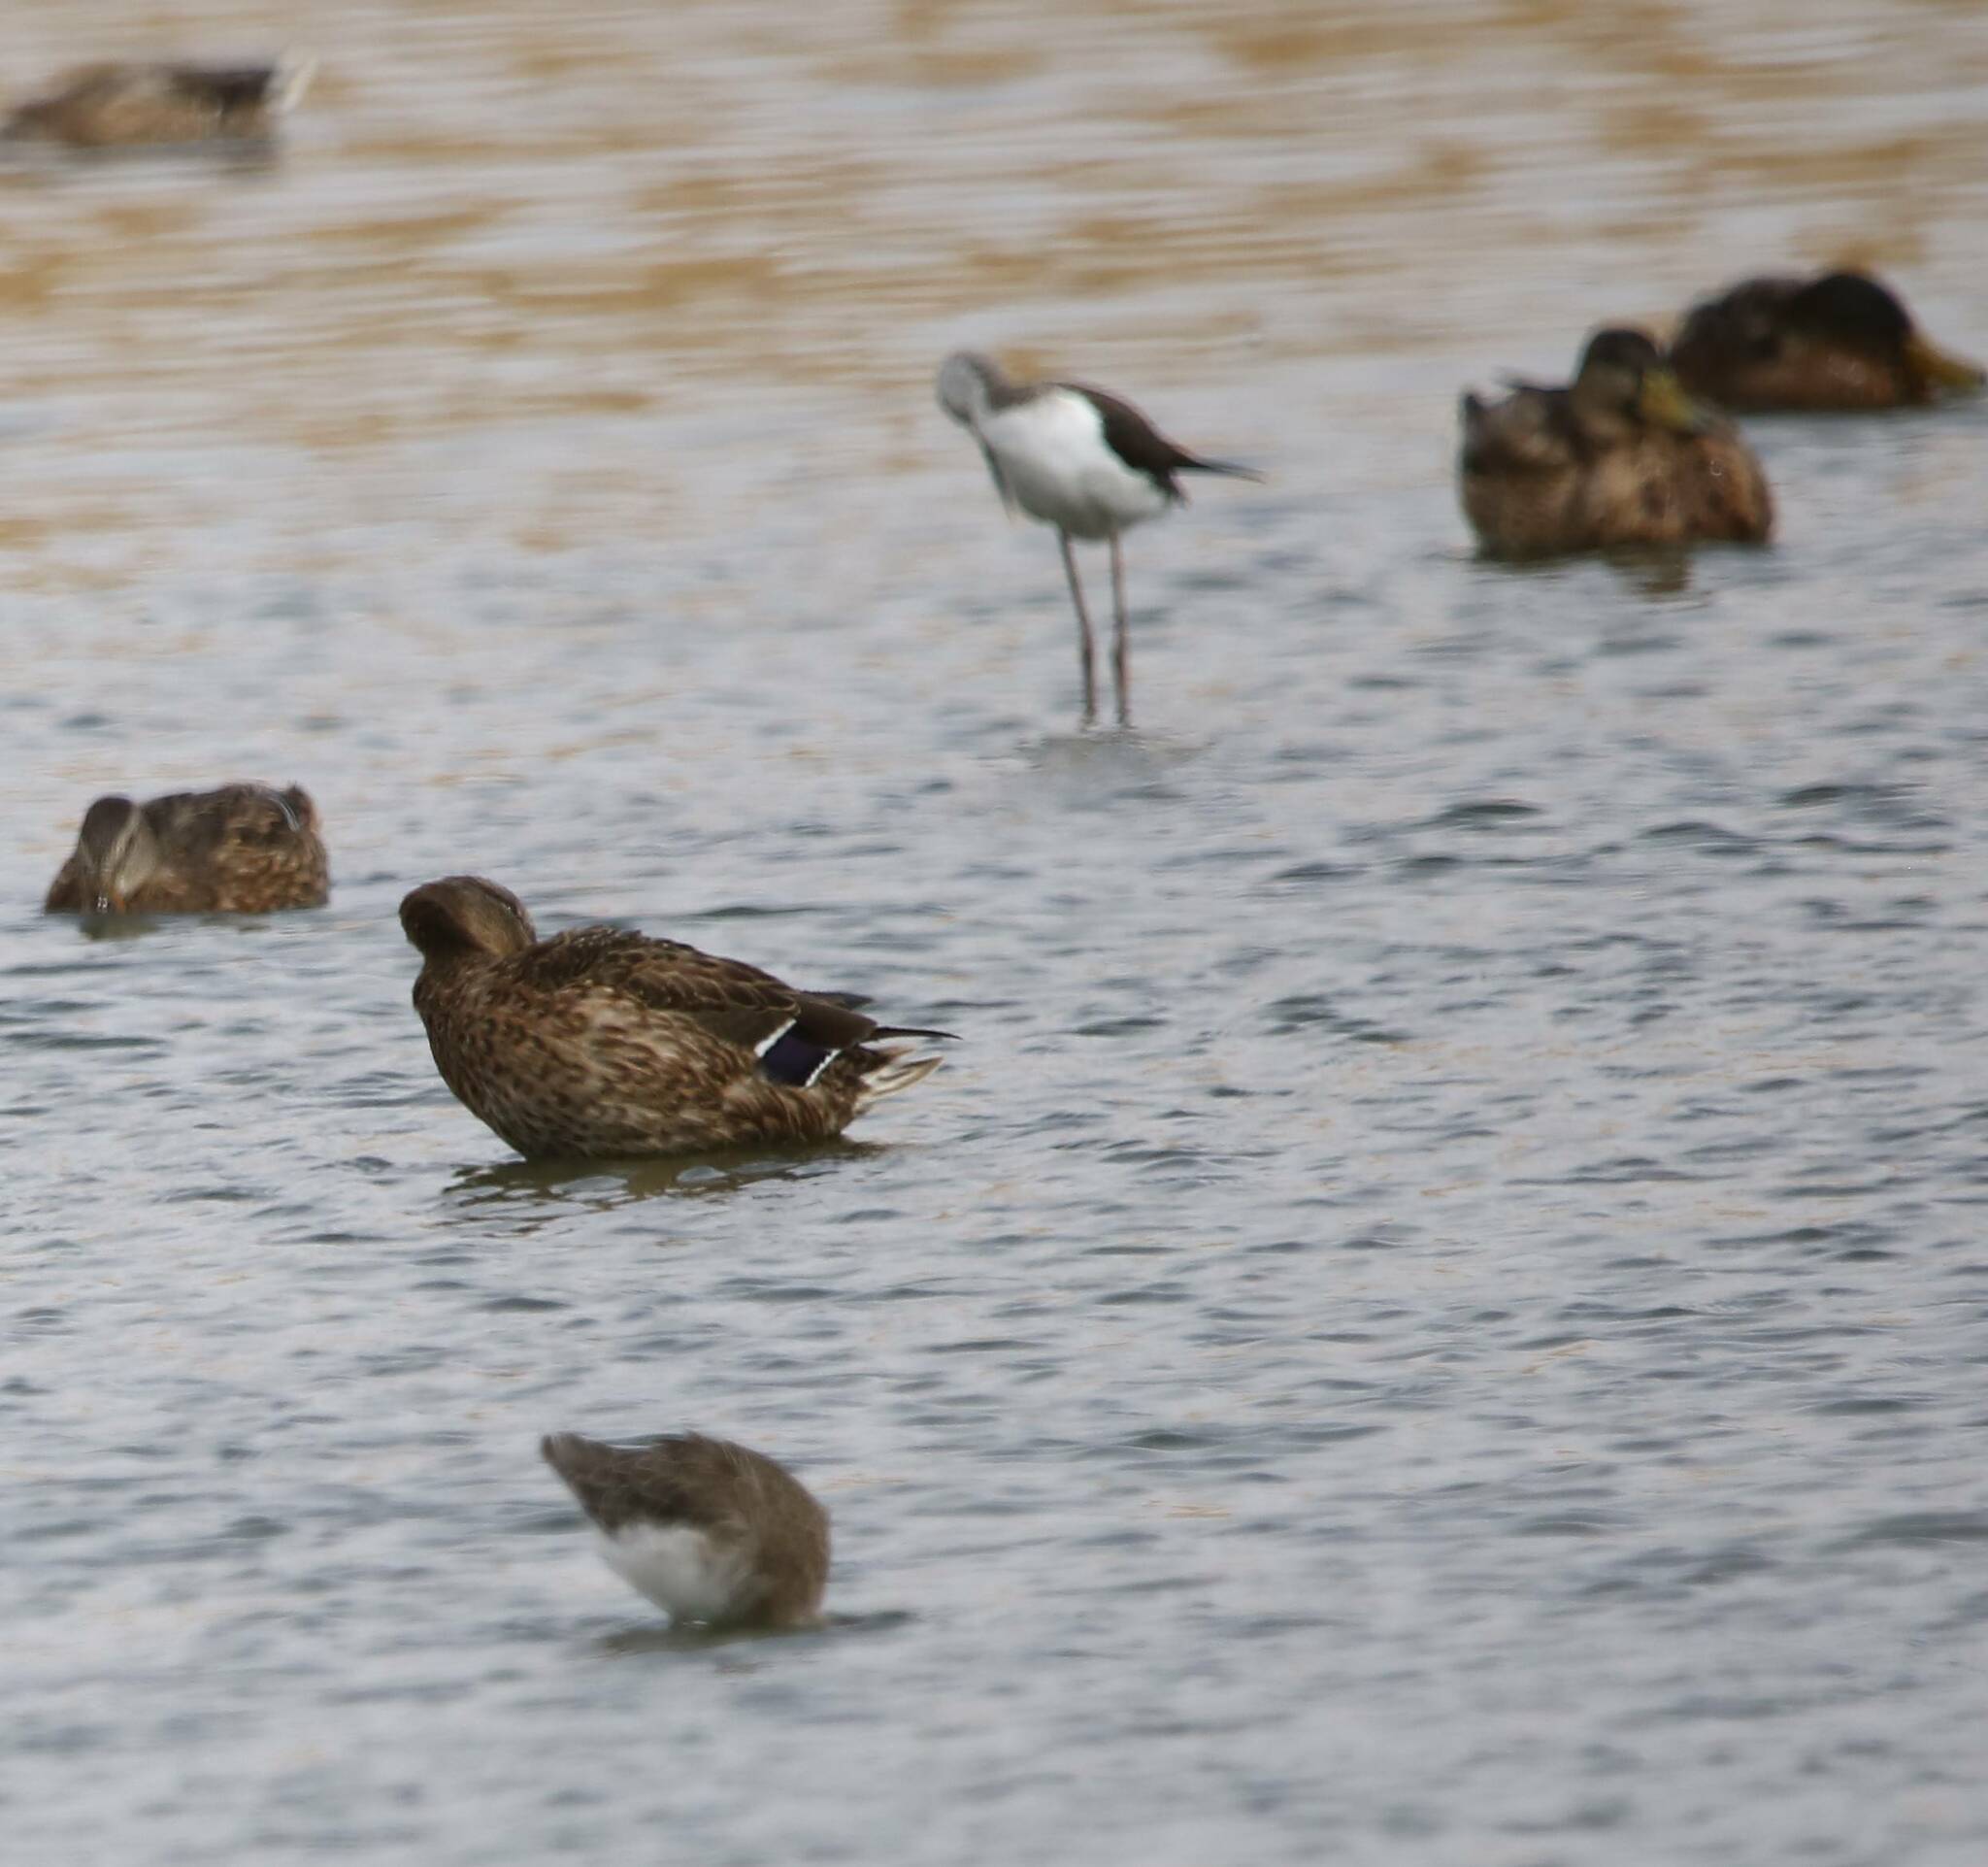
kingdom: Animalia
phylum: Chordata
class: Aves
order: Anseriformes
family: Anatidae
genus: Anas
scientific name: Anas platyrhynchos
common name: Mallard
